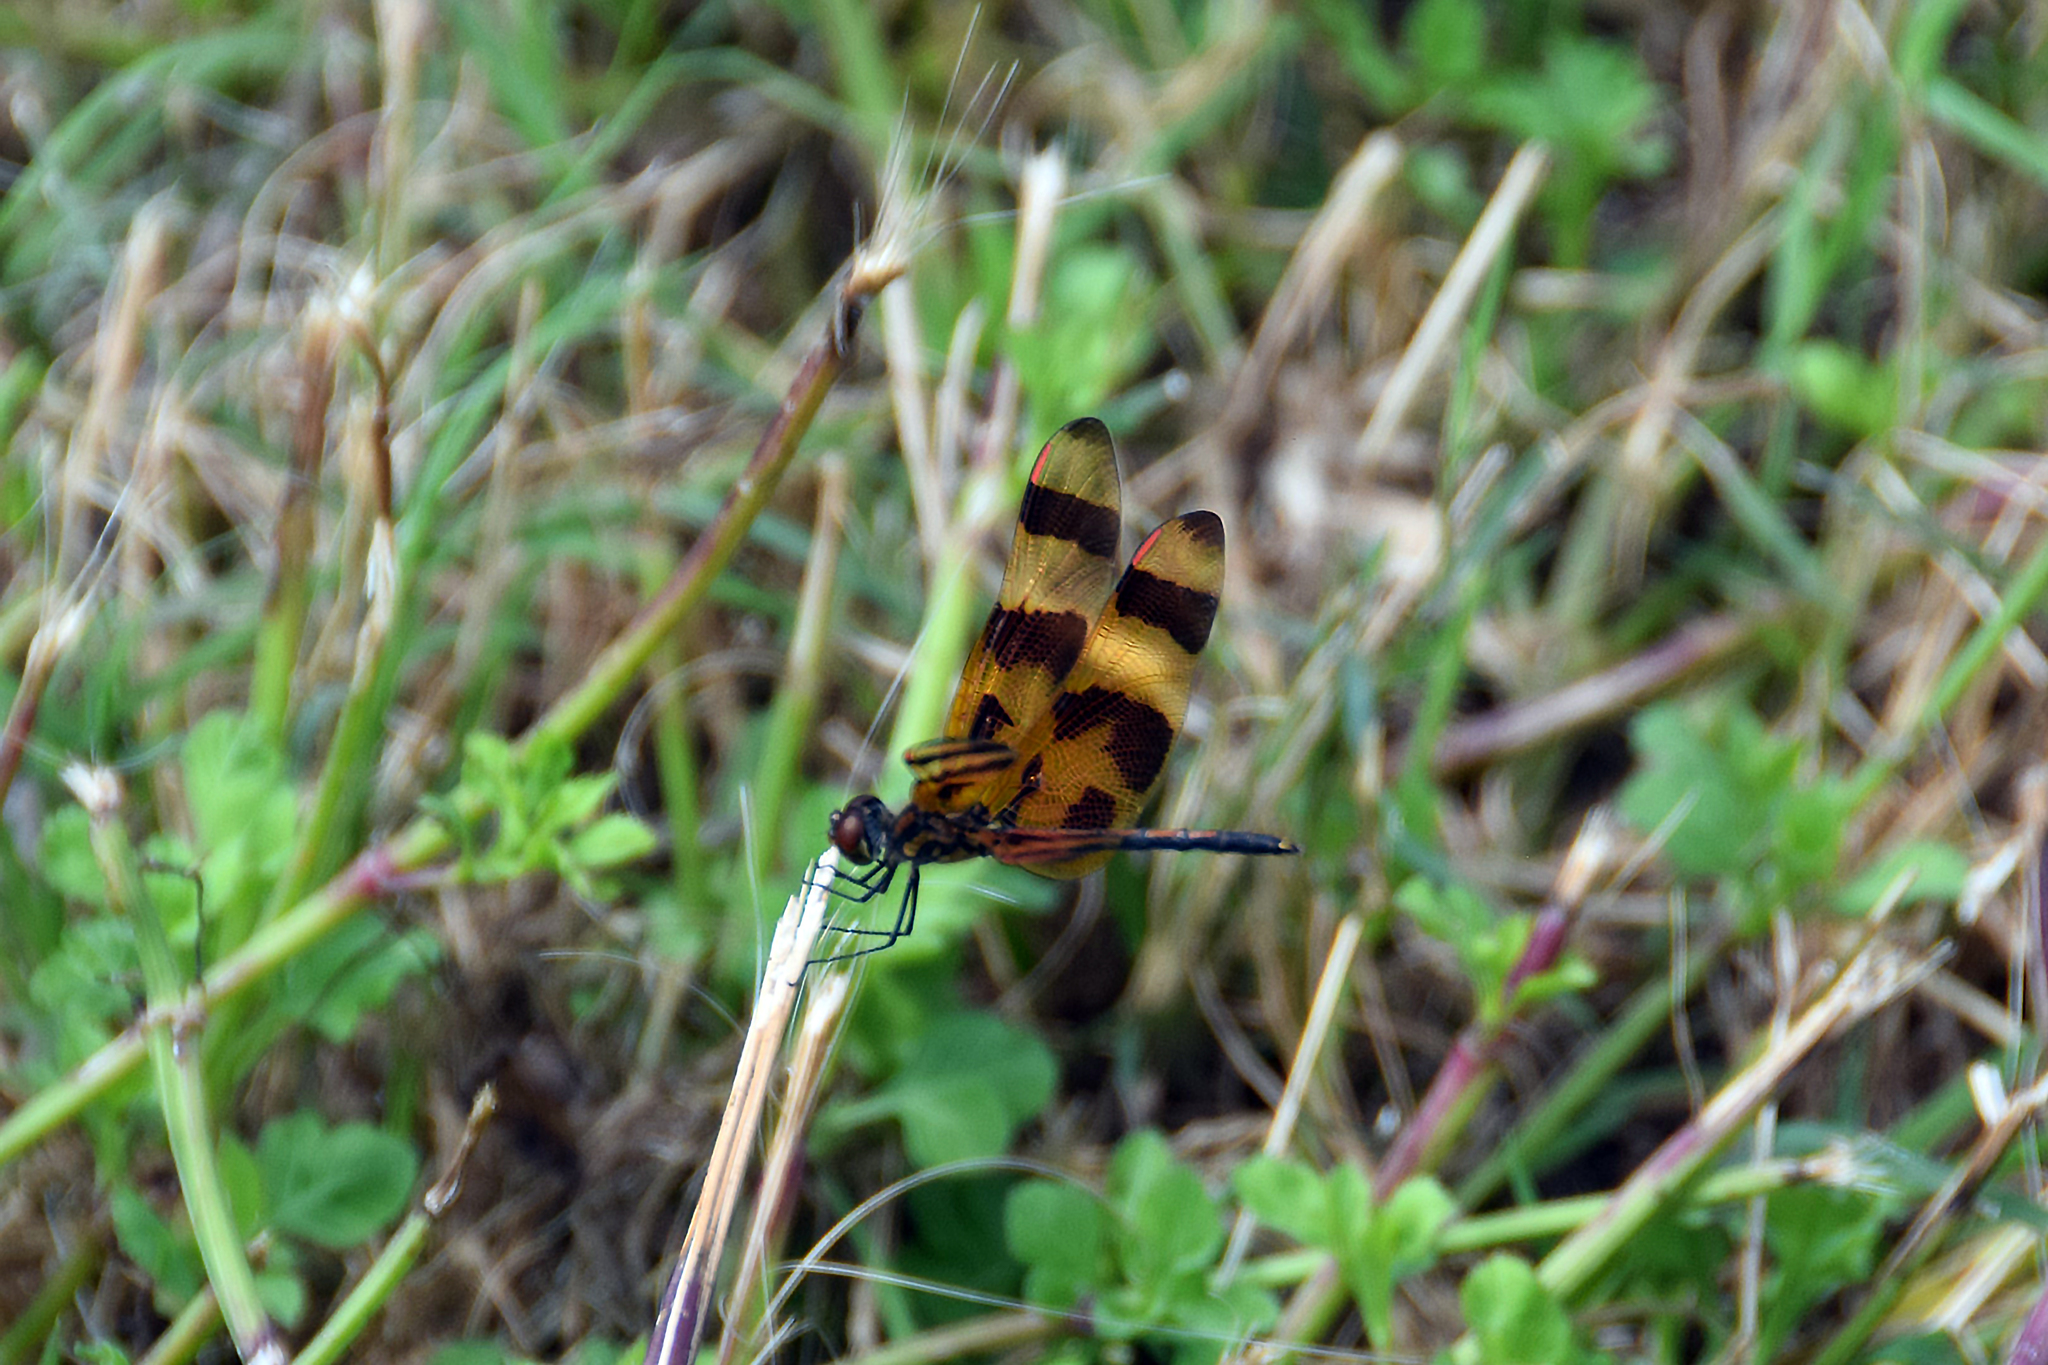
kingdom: Animalia
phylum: Arthropoda
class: Insecta
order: Odonata
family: Libellulidae
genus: Celithemis
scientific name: Celithemis eponina
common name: Halloween pennant
